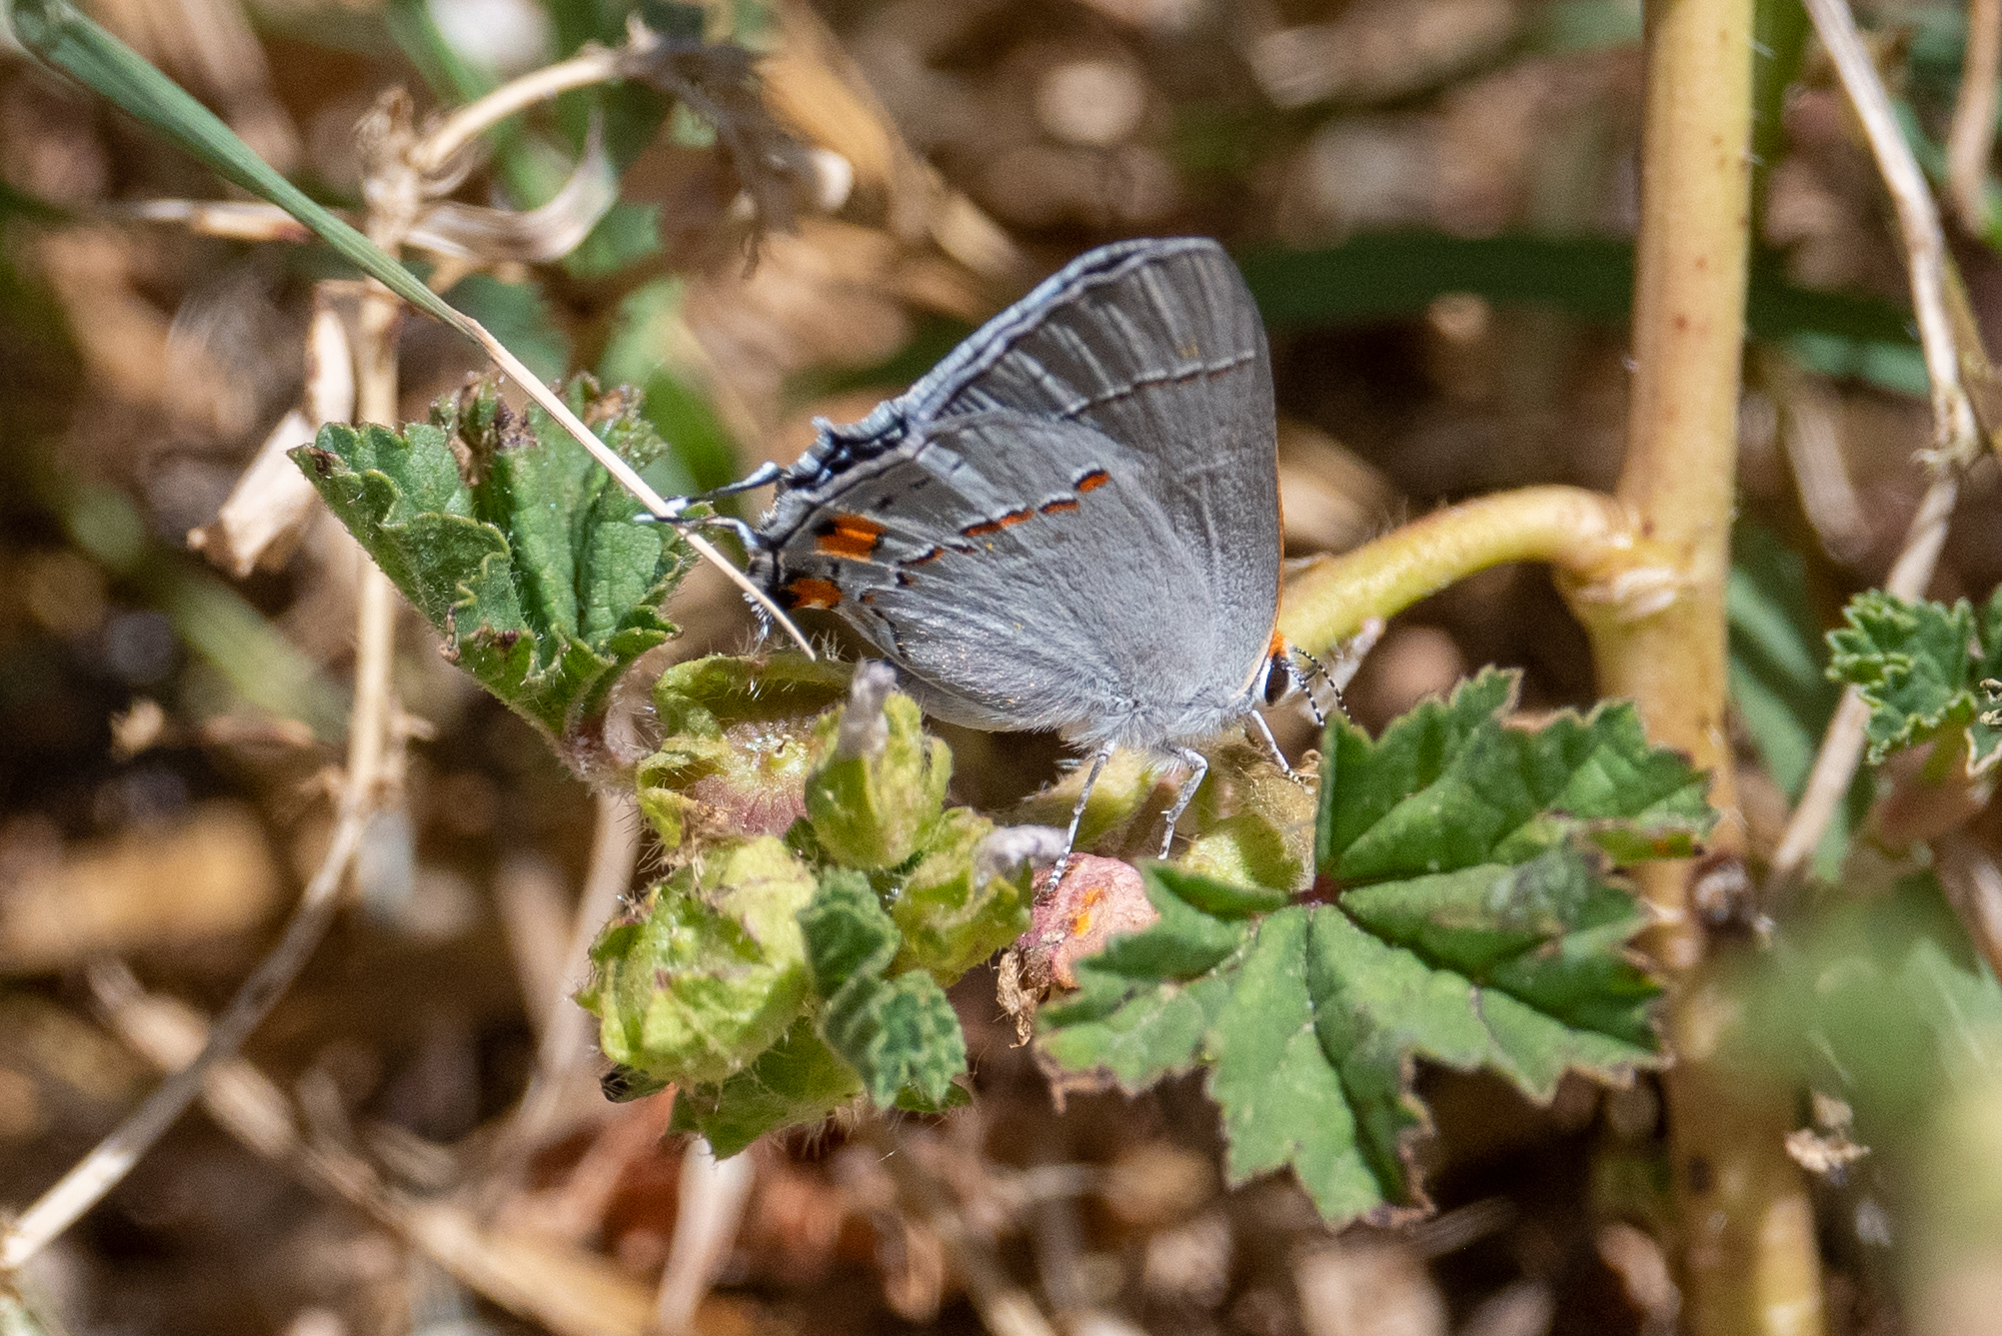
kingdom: Animalia
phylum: Arthropoda
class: Insecta
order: Lepidoptera
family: Lycaenidae
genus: Strymon
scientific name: Strymon melinus
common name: Gray hairstreak
